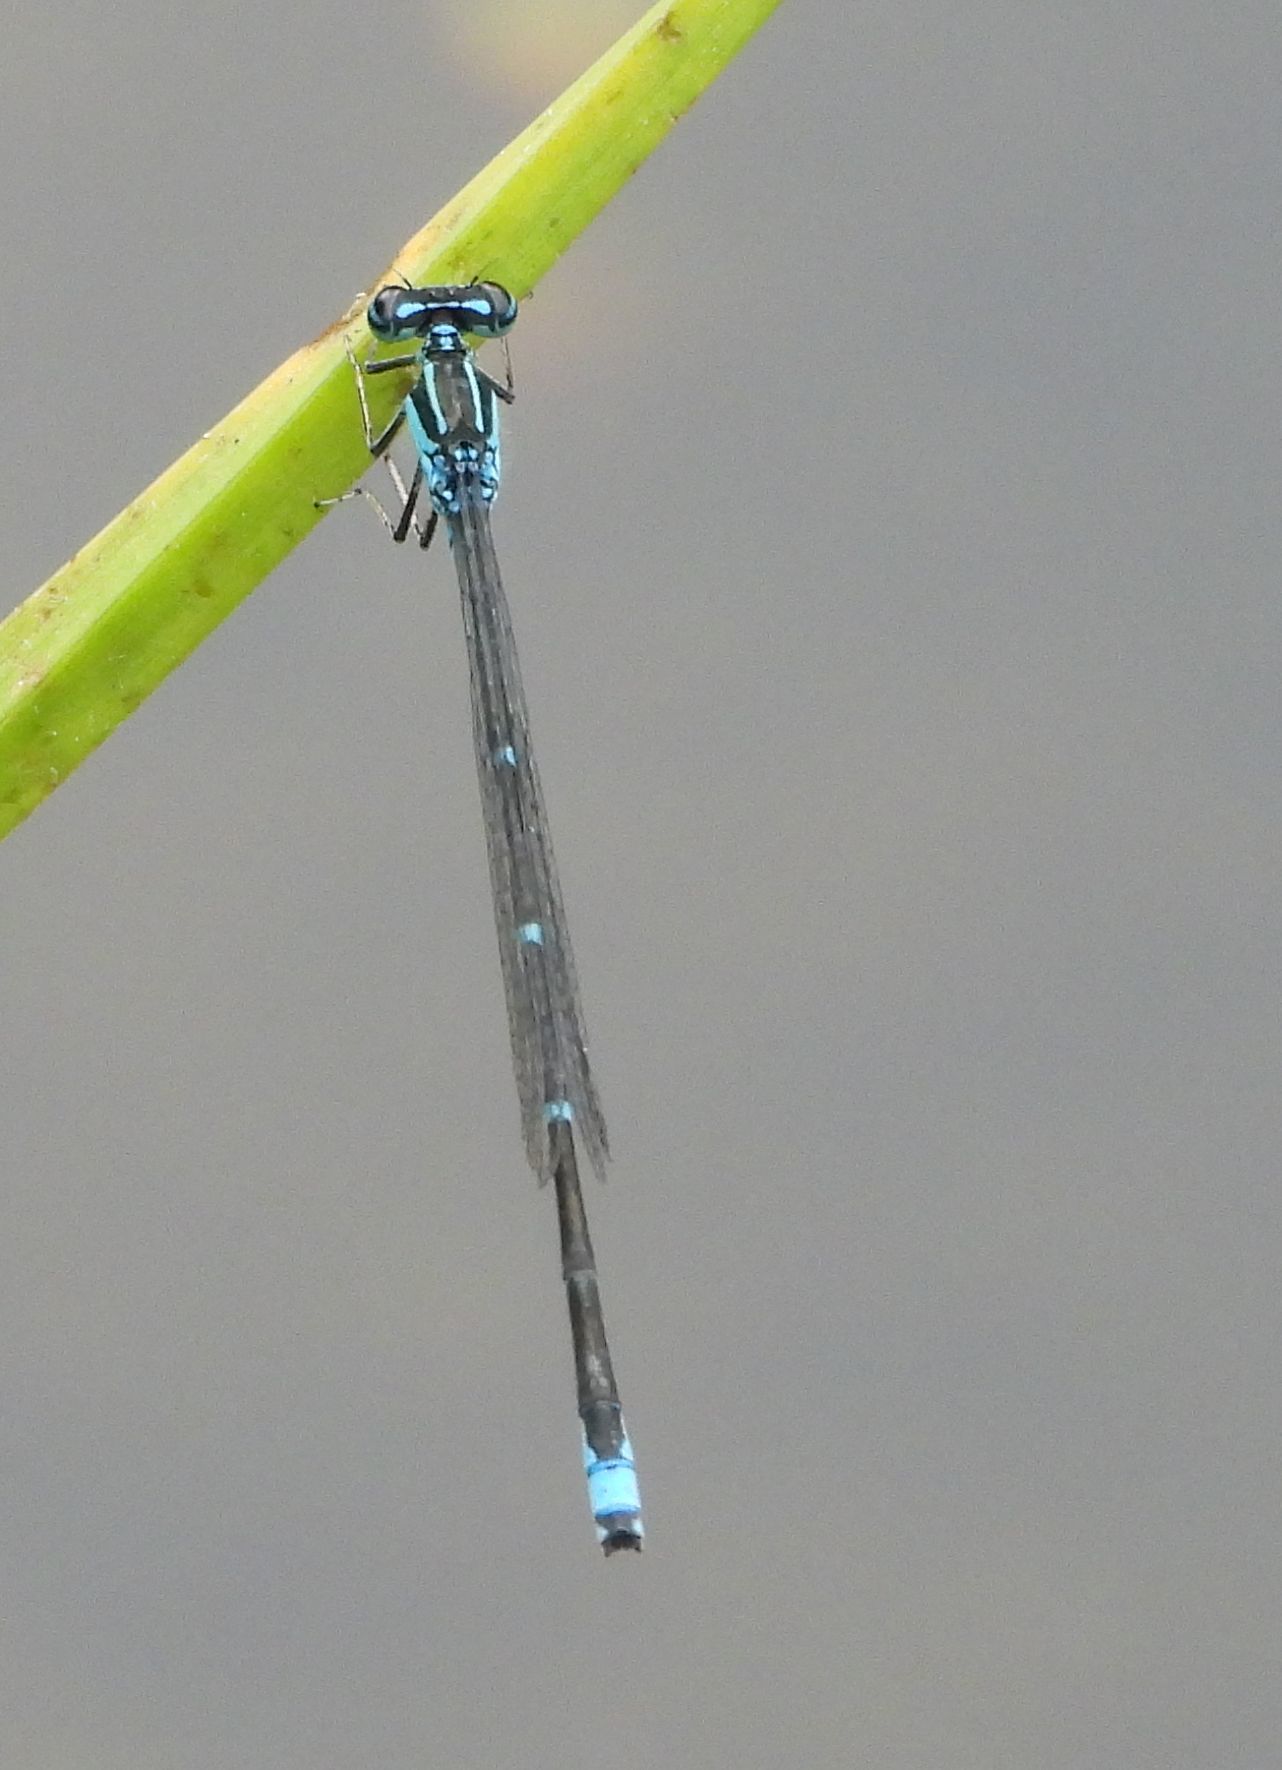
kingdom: Animalia
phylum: Arthropoda
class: Insecta
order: Odonata
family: Coenagrionidae
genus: Enallagma
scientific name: Enallagma exsulans
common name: Stream bluet
